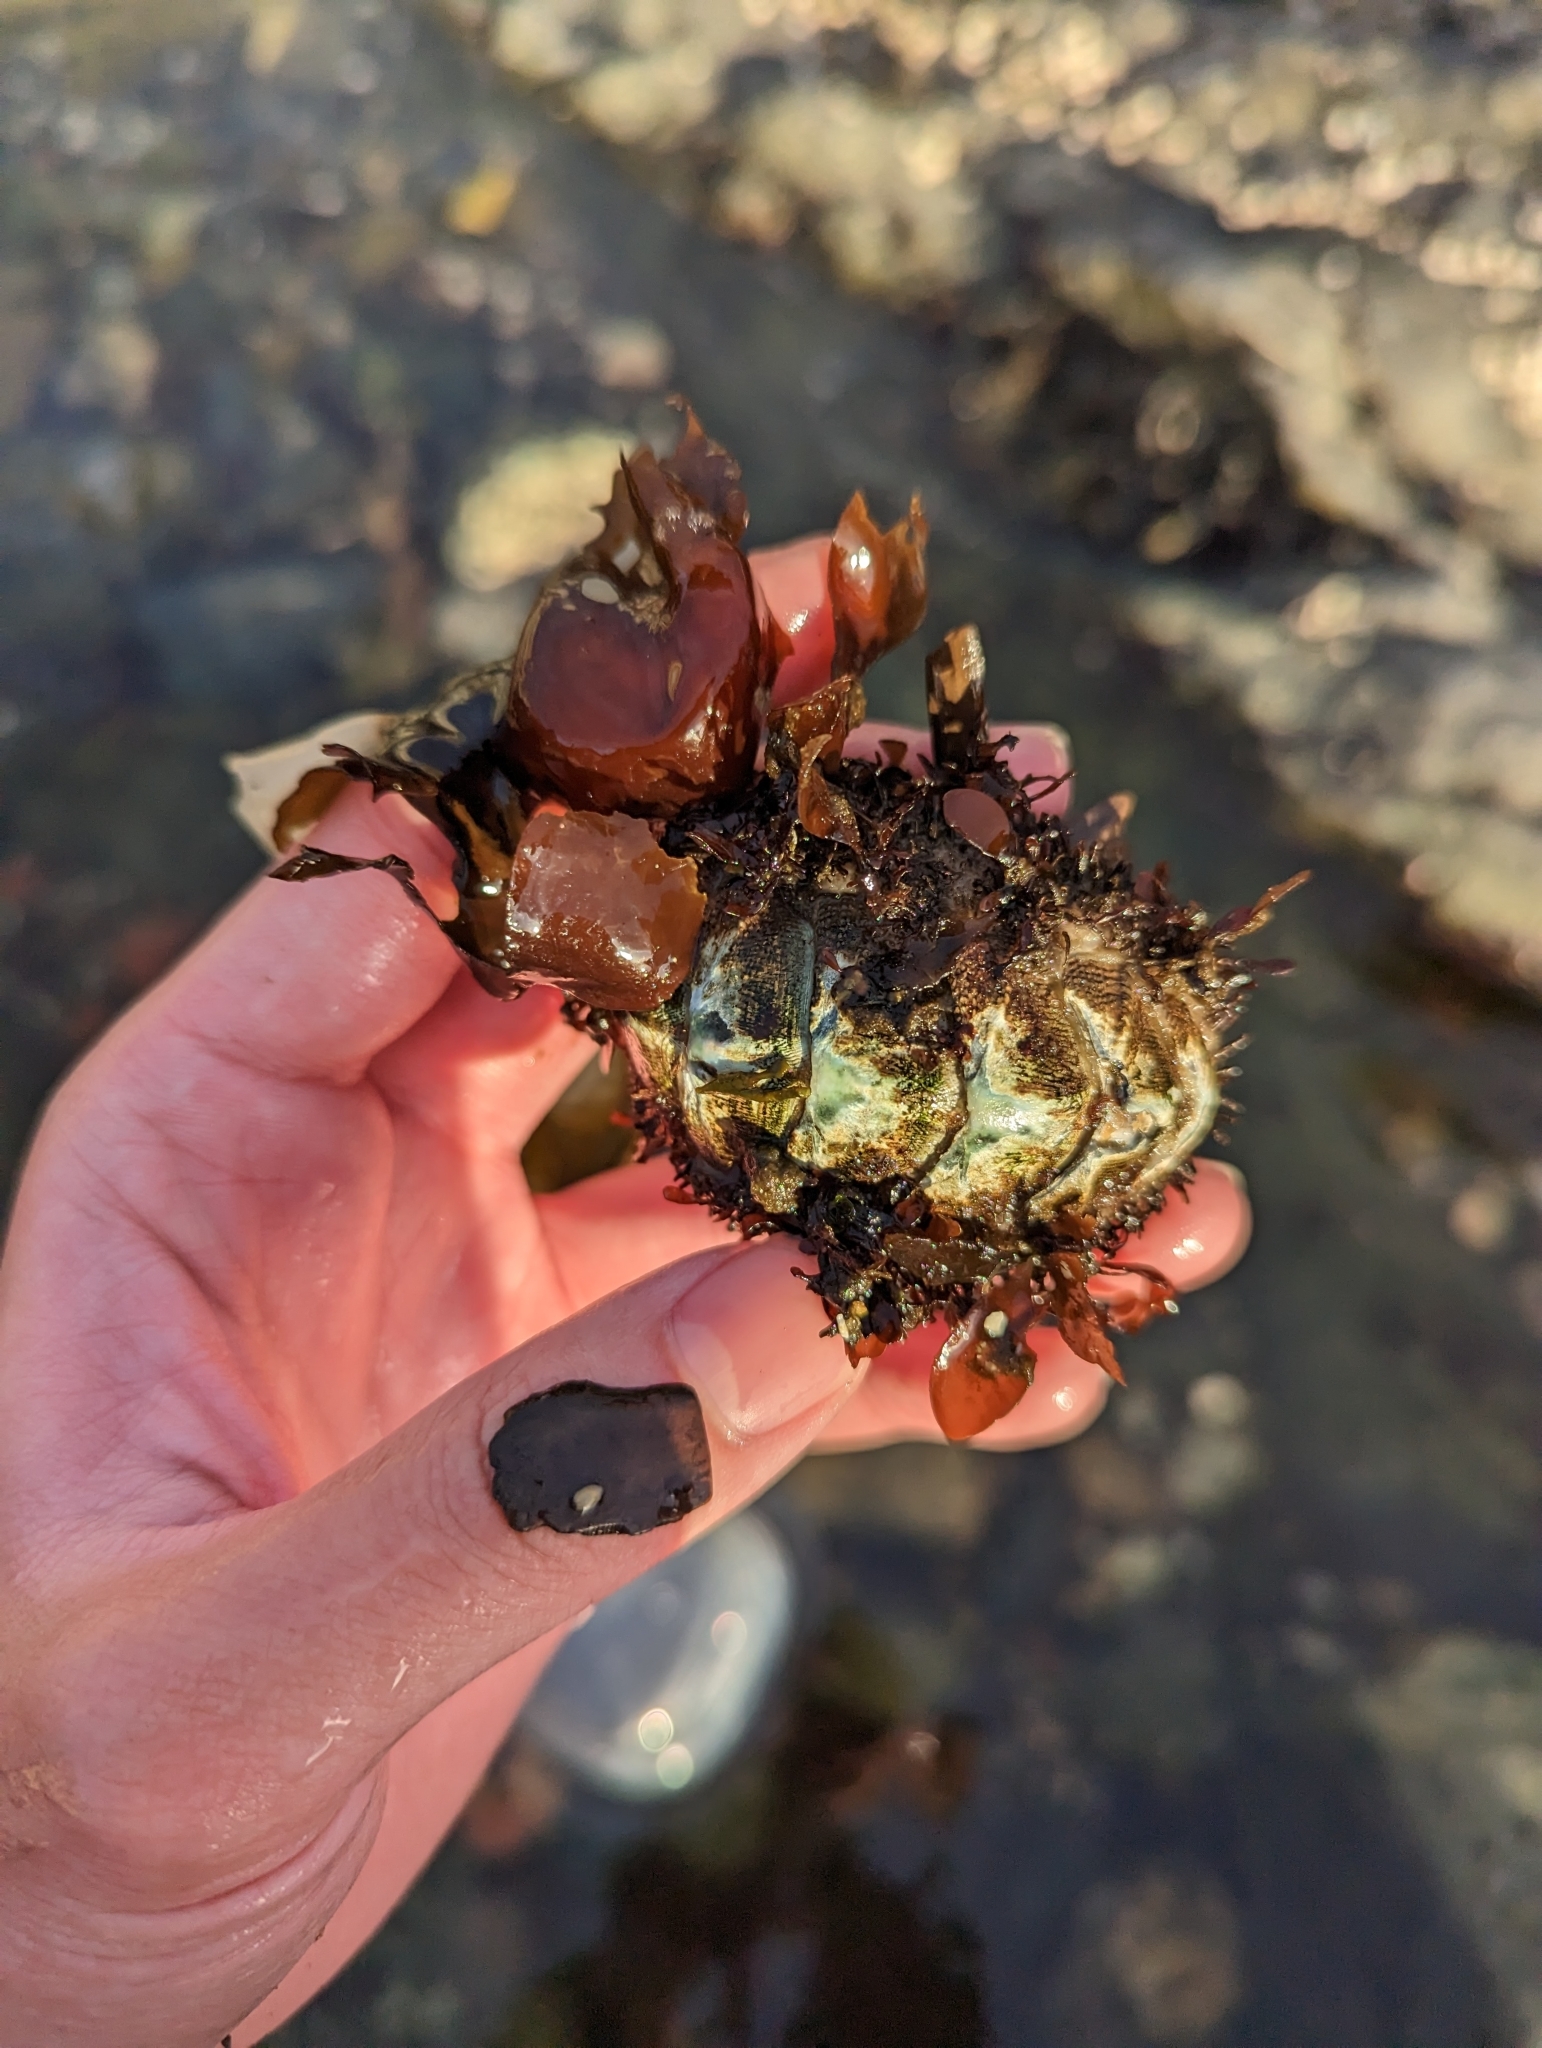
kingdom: Animalia
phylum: Mollusca
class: Polyplacophora
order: Chitonida
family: Mopaliidae
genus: Mopalia
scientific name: Mopalia muscosa
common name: Mossy chiton
